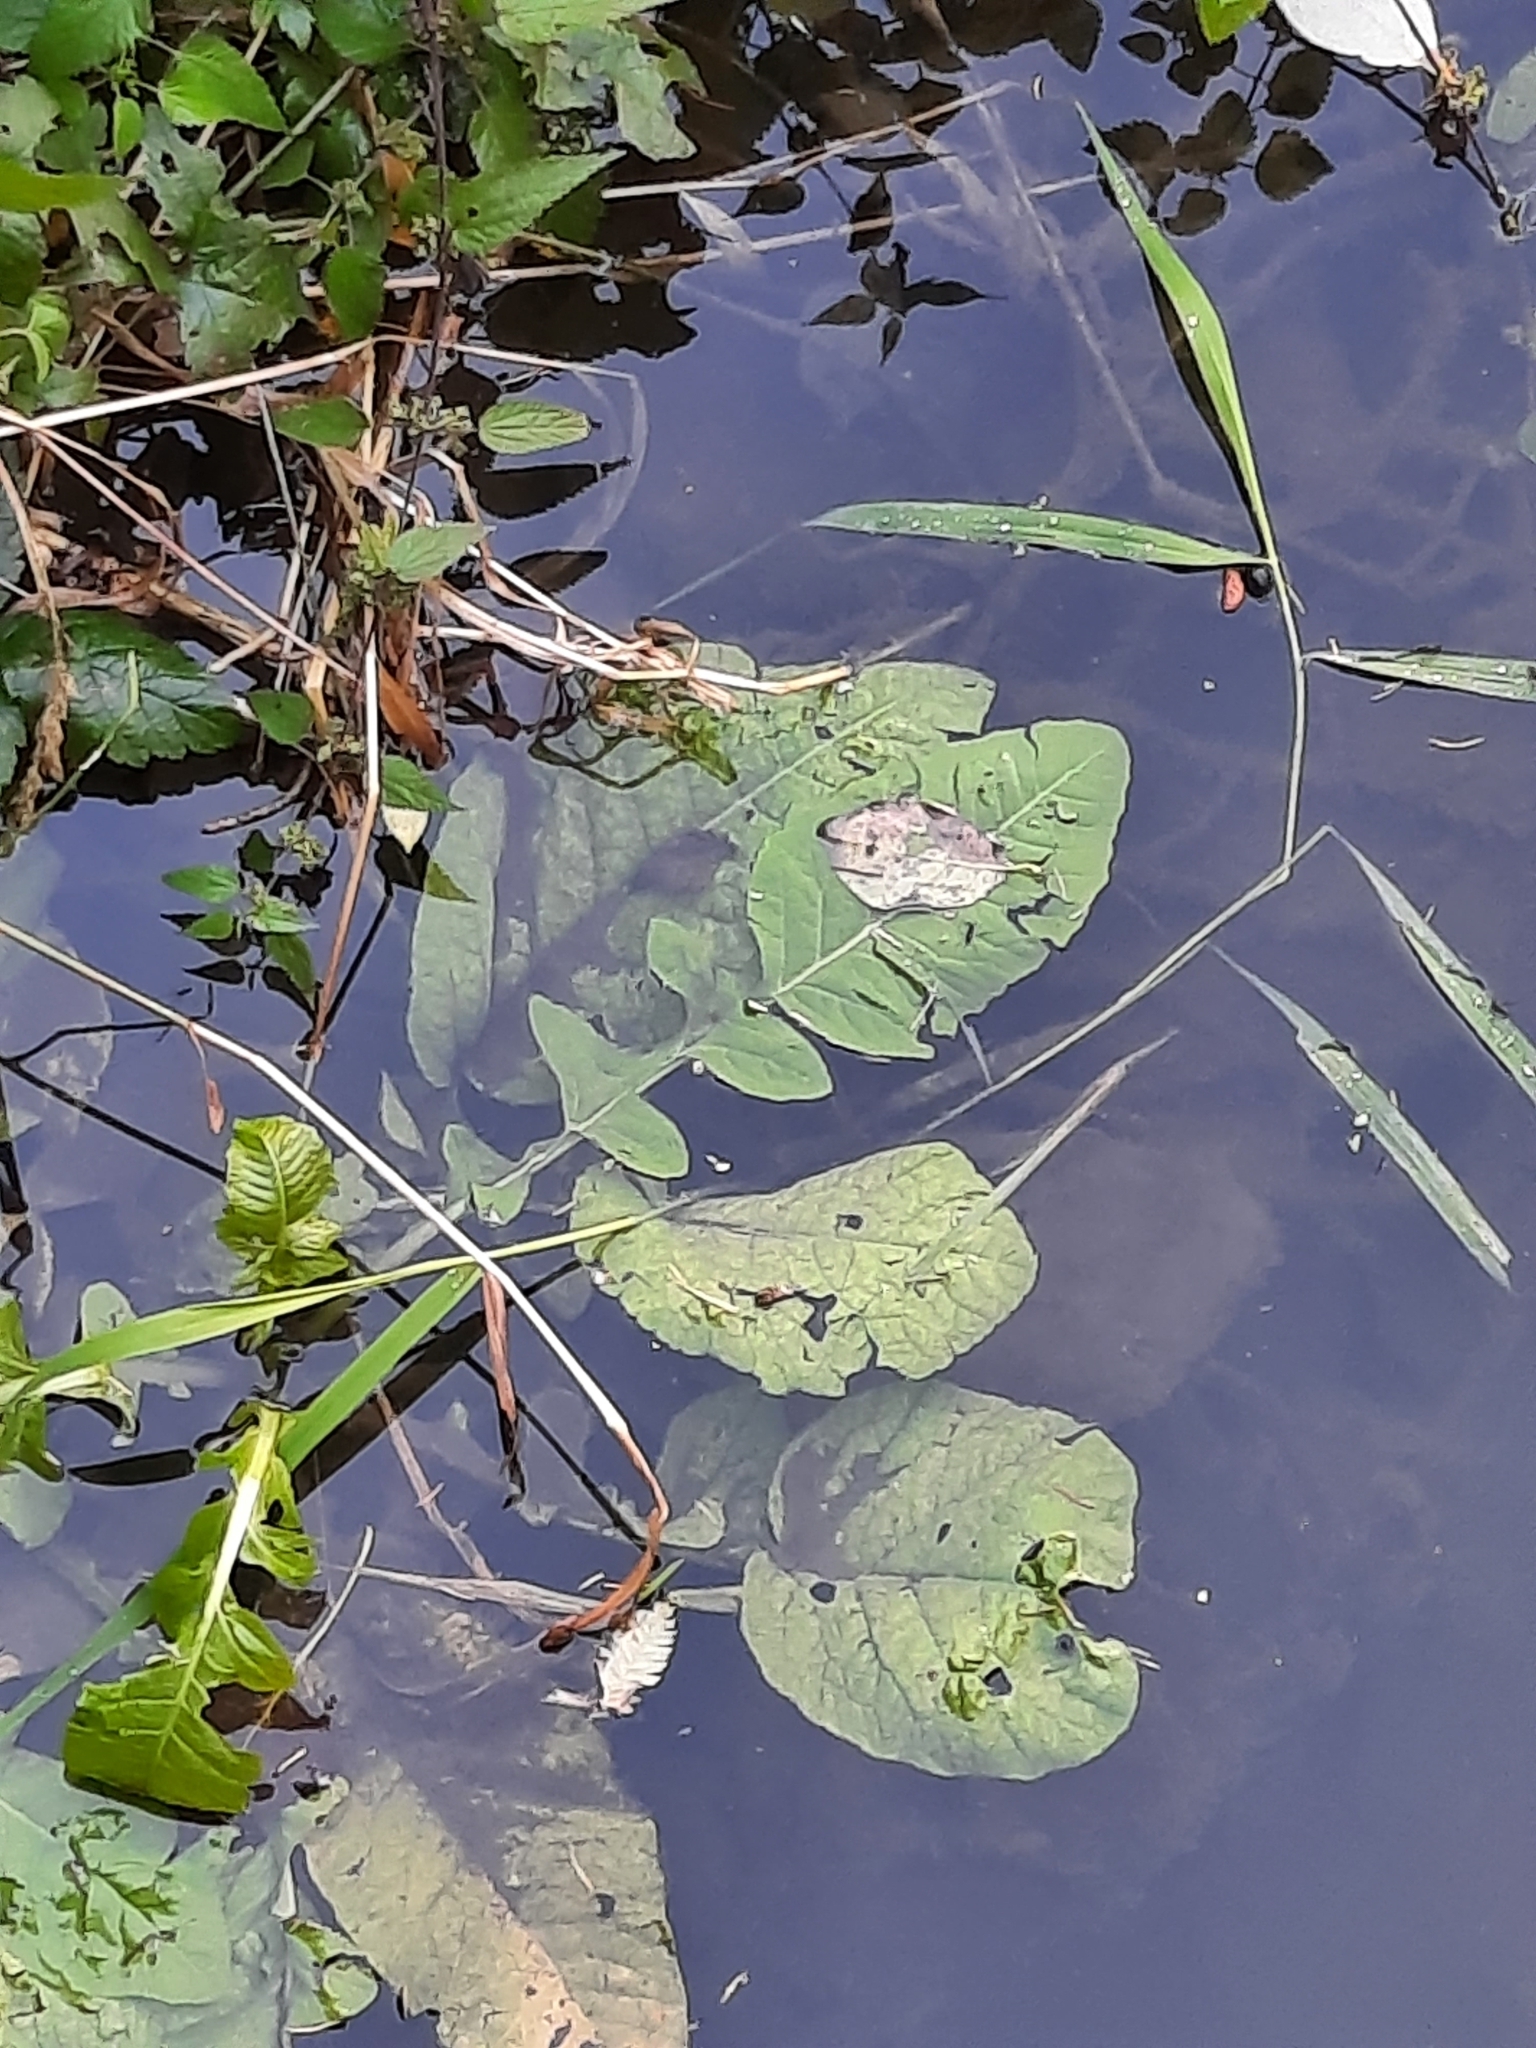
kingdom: Plantae
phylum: Tracheophyta
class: Magnoliopsida
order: Brassicales
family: Brassicaceae
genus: Rorippa
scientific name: Rorippa amphibia
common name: Great yellow-cress
